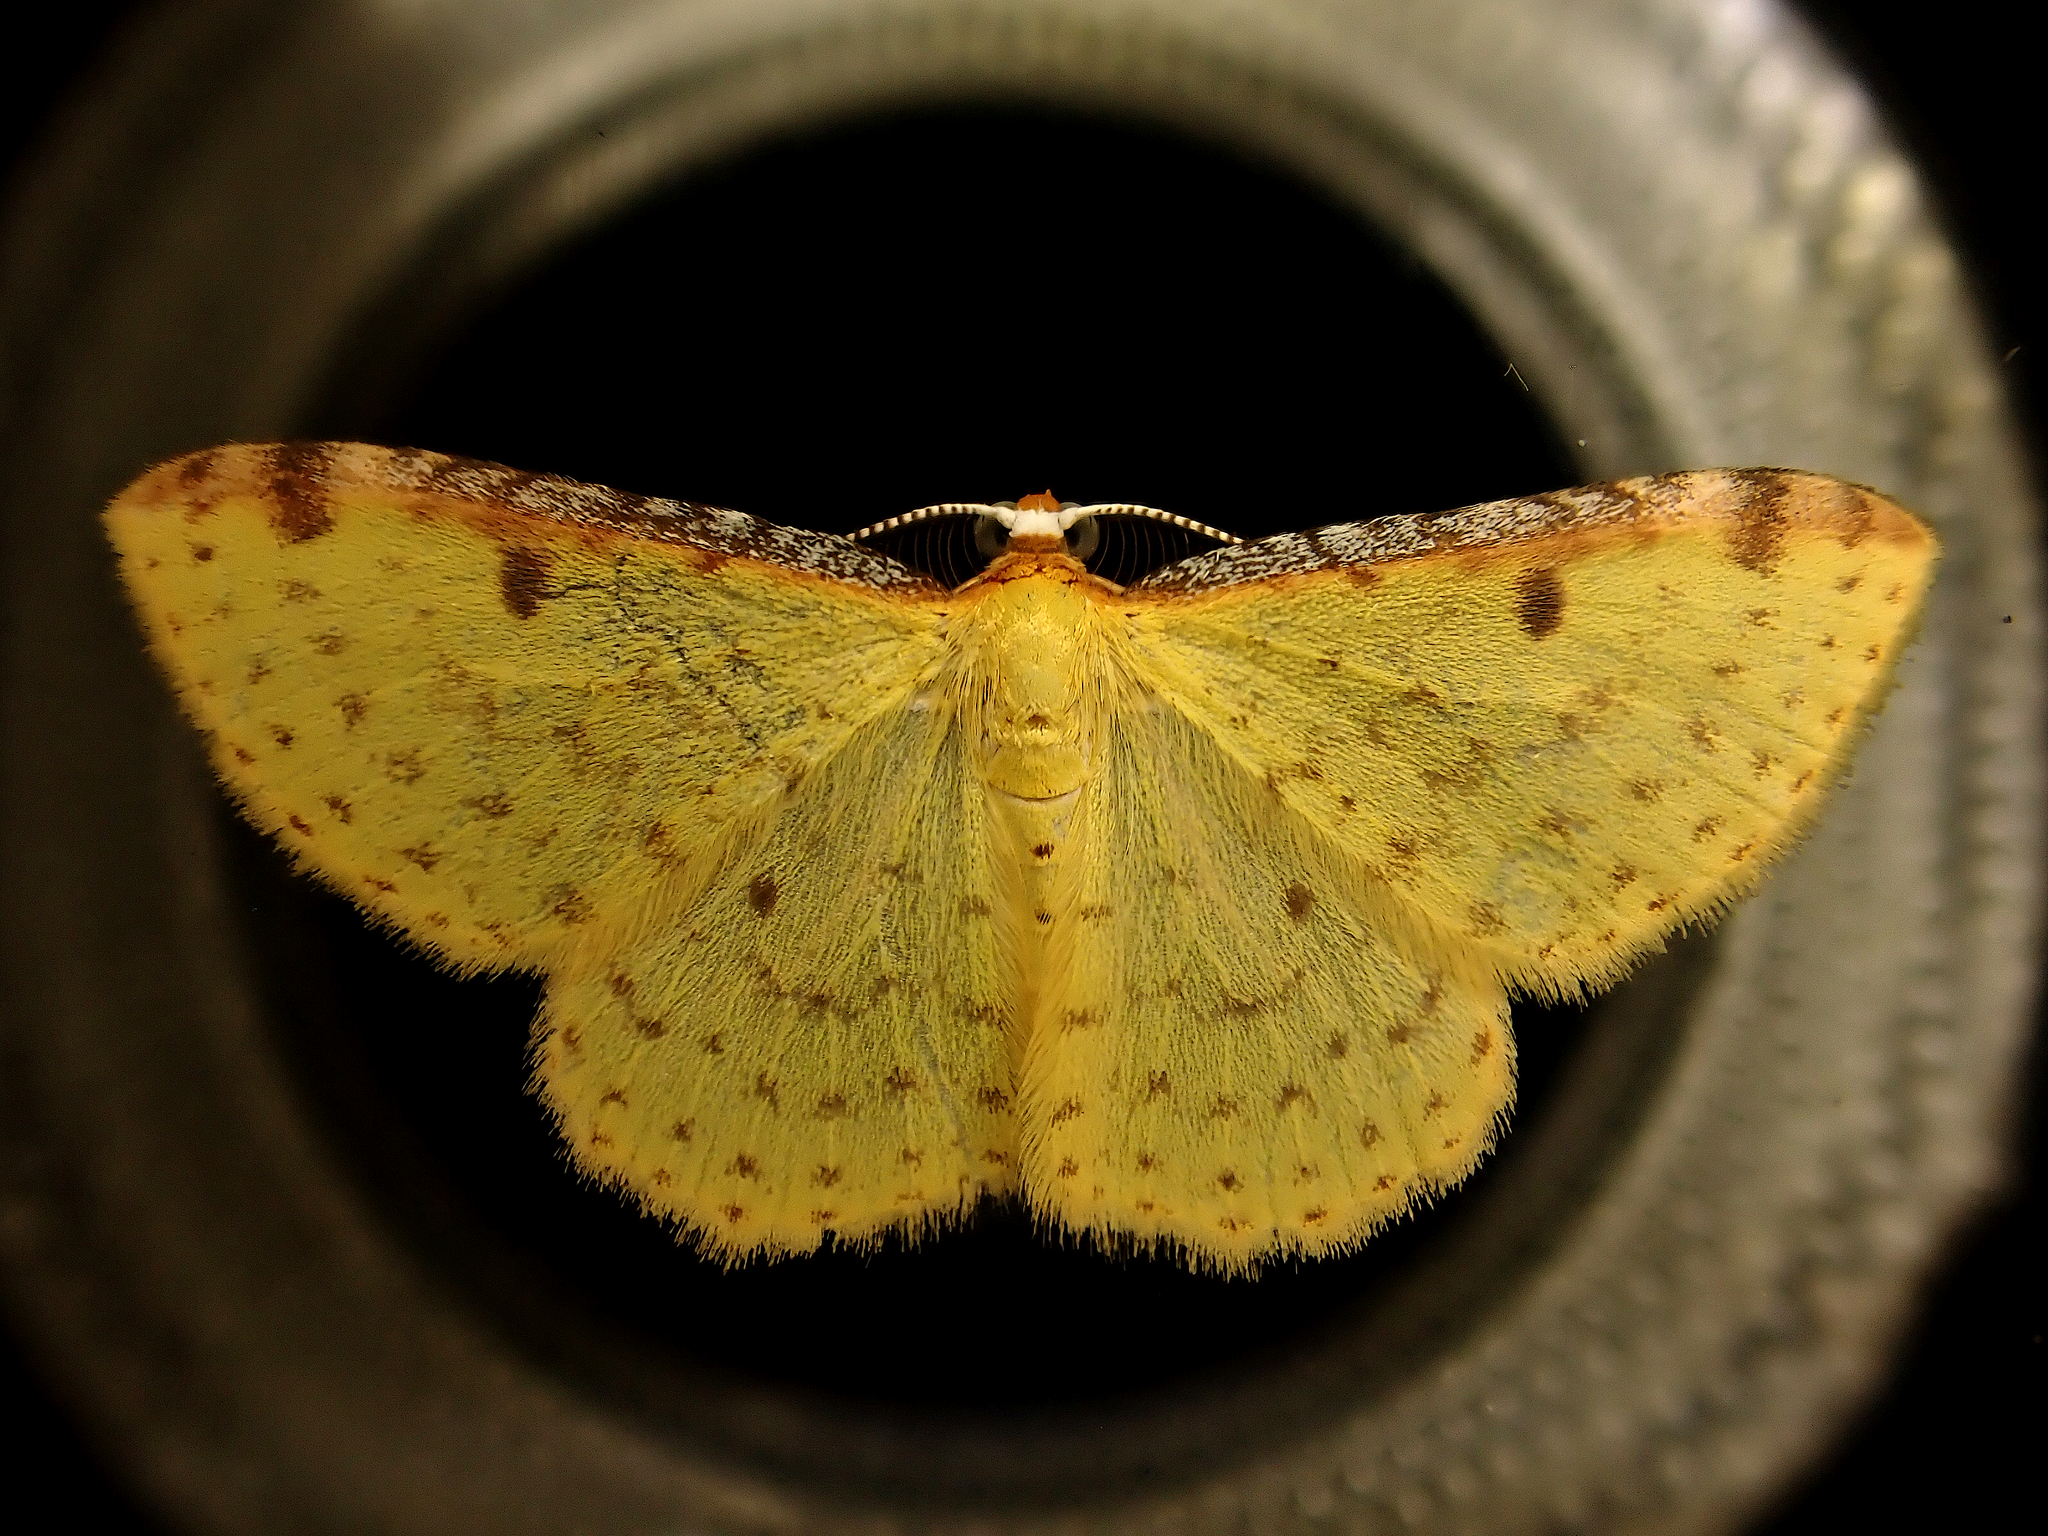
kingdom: Animalia
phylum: Arthropoda
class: Insecta
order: Lepidoptera
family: Geometridae
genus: Epiphryne
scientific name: Epiphryne undosata
